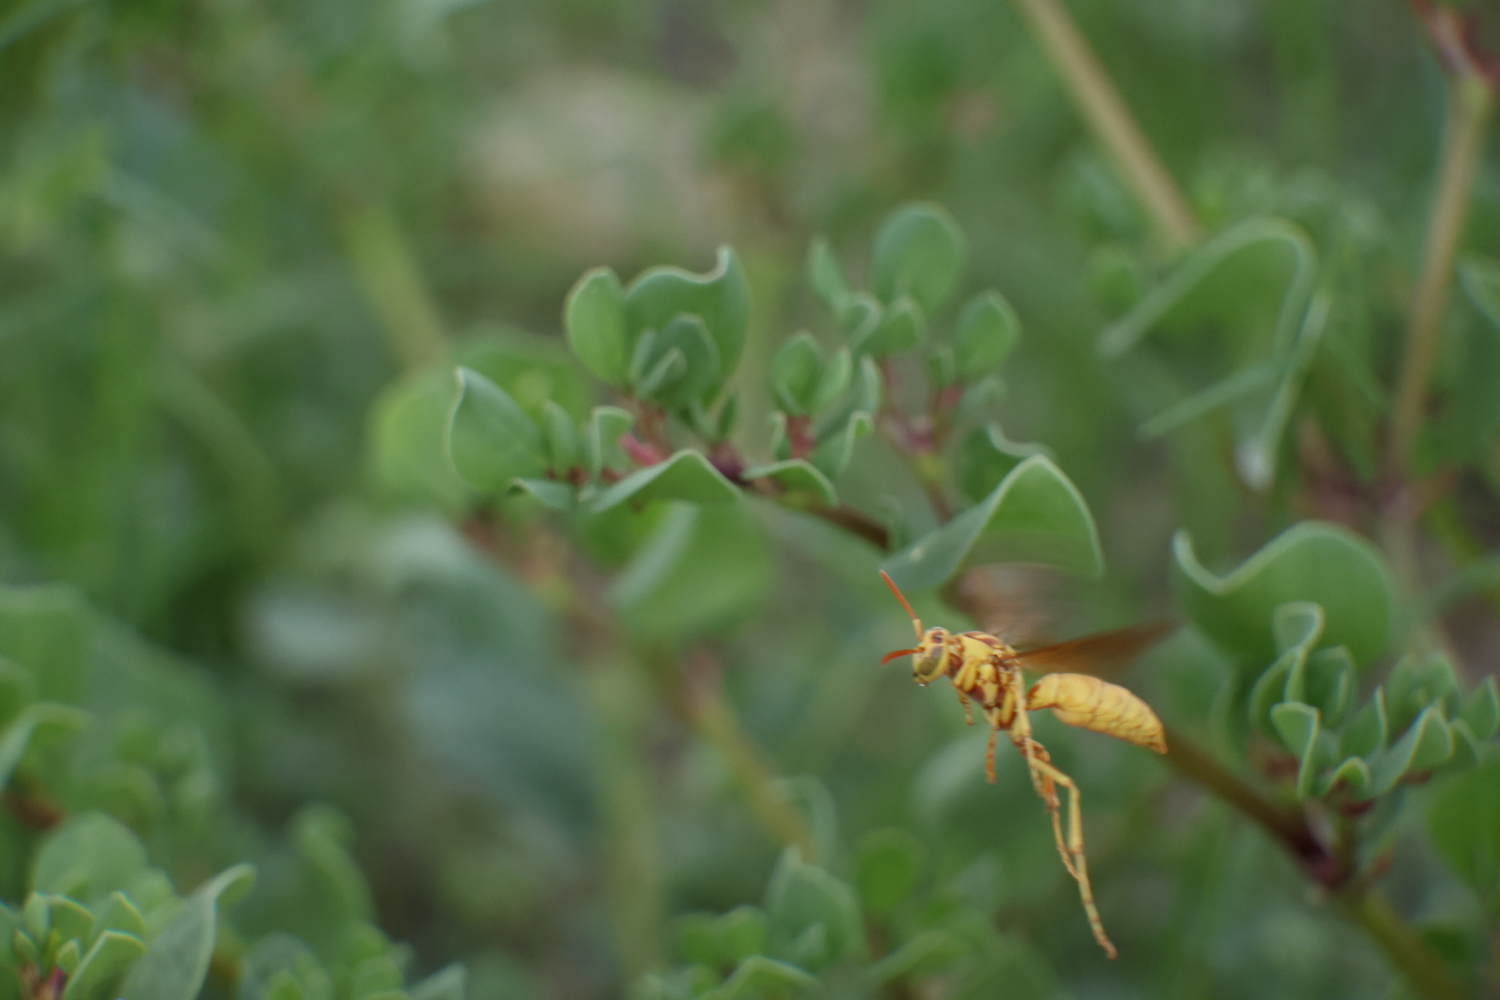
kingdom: Animalia
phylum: Arthropoda
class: Insecta
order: Hymenoptera
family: Eumenidae
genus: Polistes
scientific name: Polistes aurifer
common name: Paper wasp
